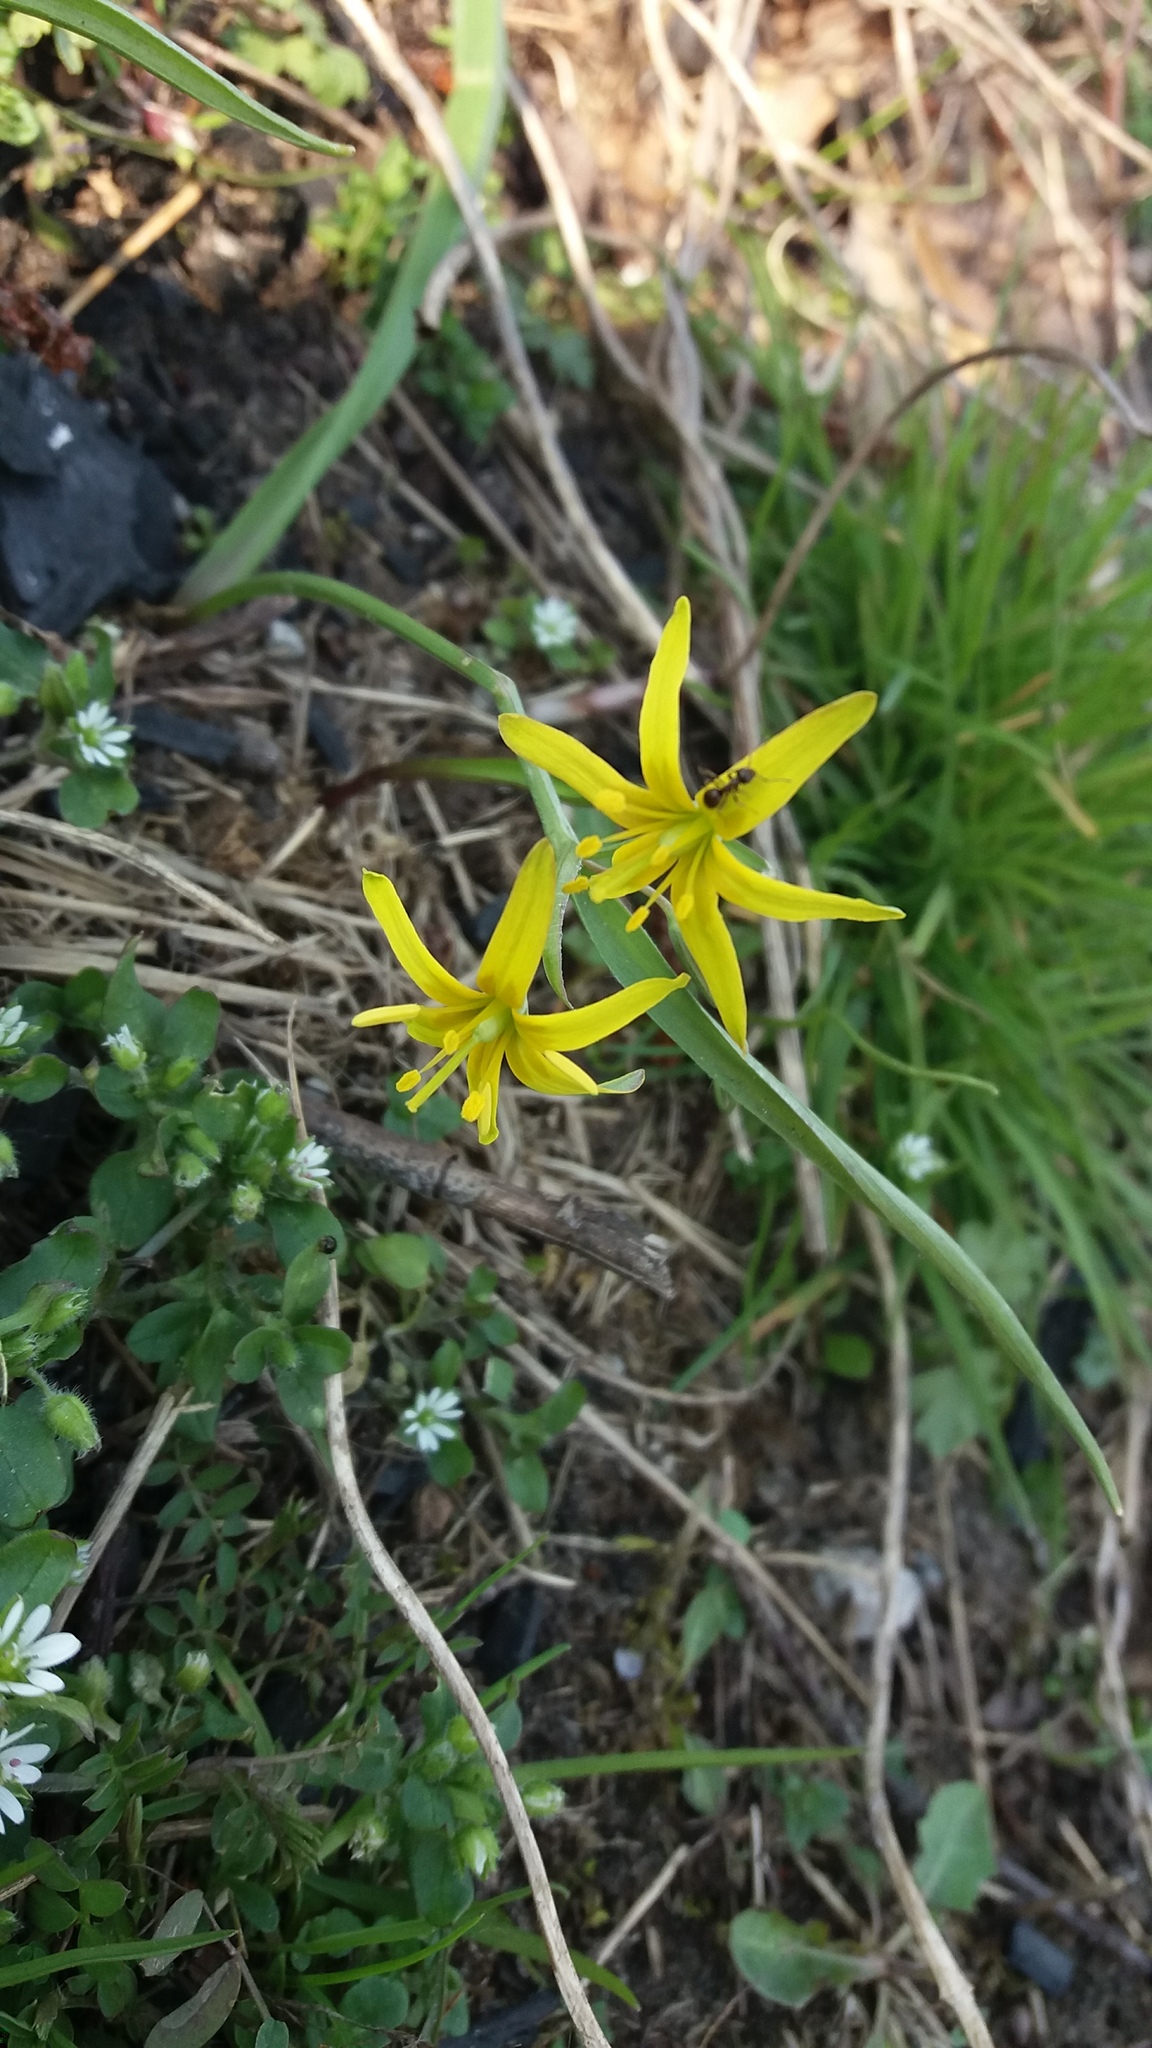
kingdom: Plantae
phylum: Tracheophyta
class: Liliopsida
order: Liliales
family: Liliaceae
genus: Gagea
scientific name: Gagea lutea
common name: Yellow star-of-bethlehem
